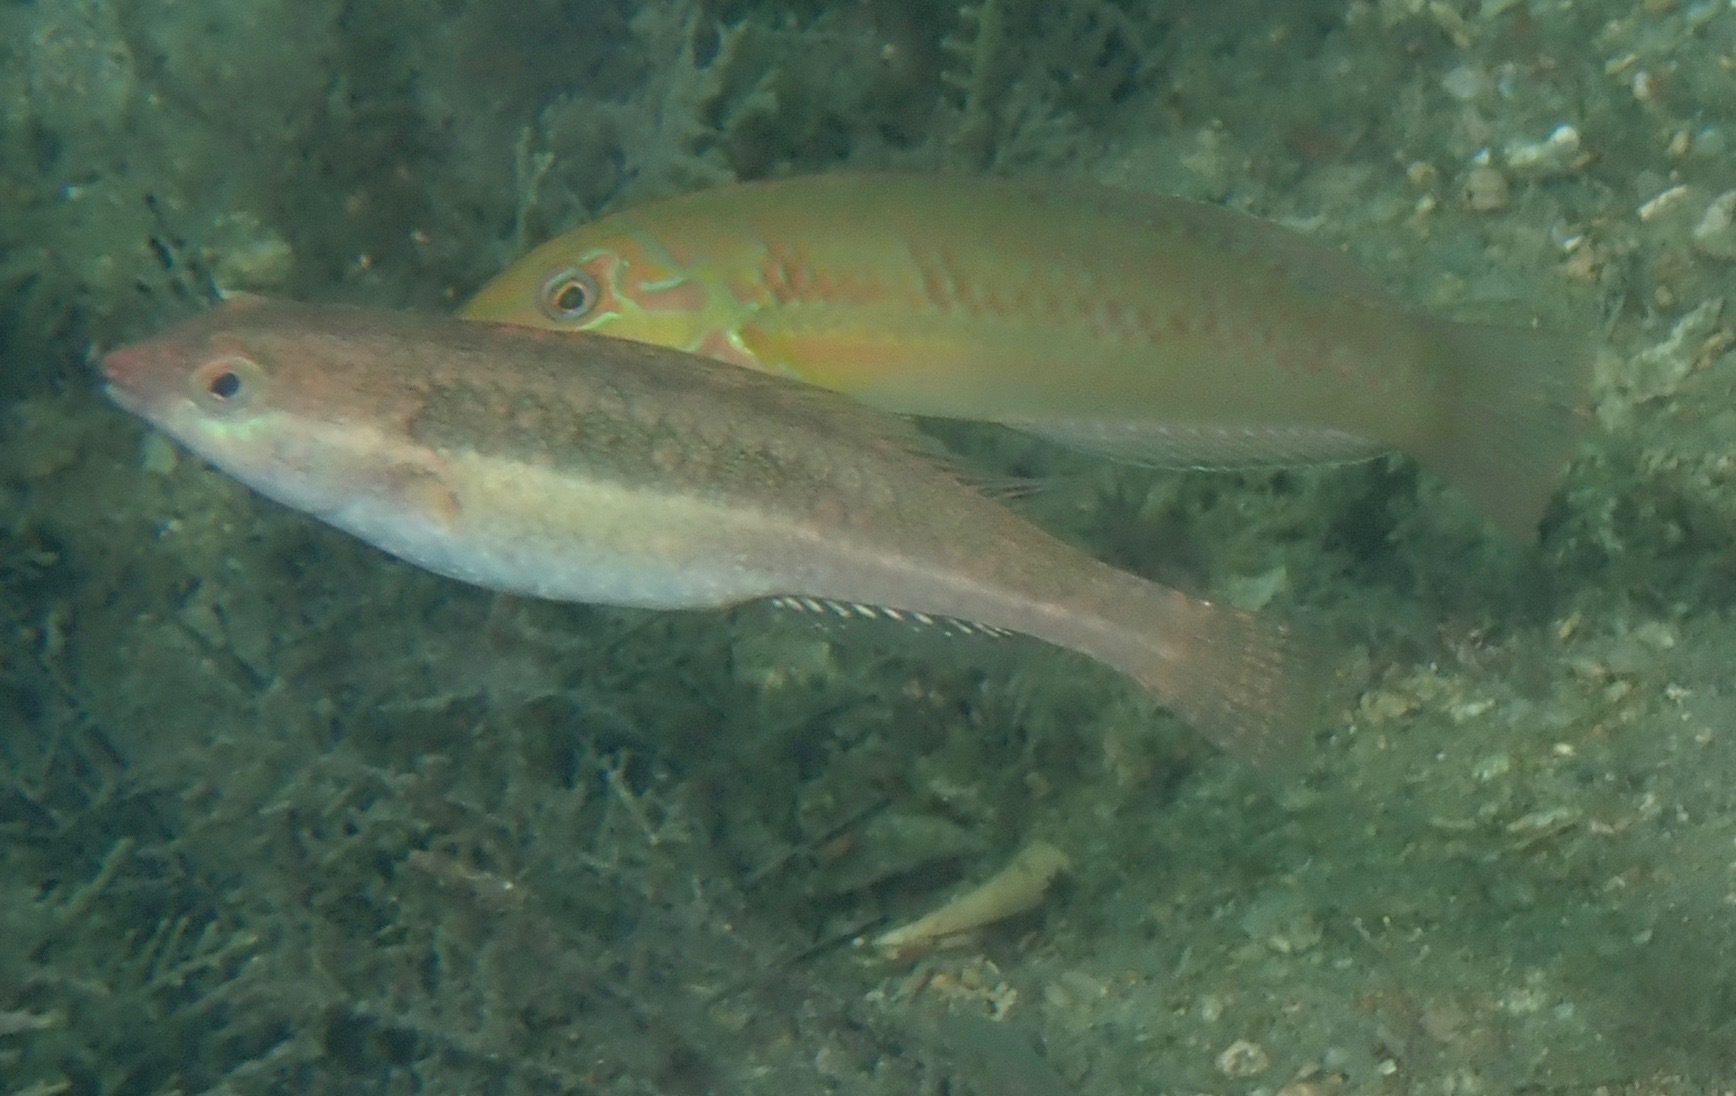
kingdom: Animalia
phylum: Chordata
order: Perciformes
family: Scaridae
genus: Cryptotomus
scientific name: Cryptotomus roseus
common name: Bluelip parrotfish
